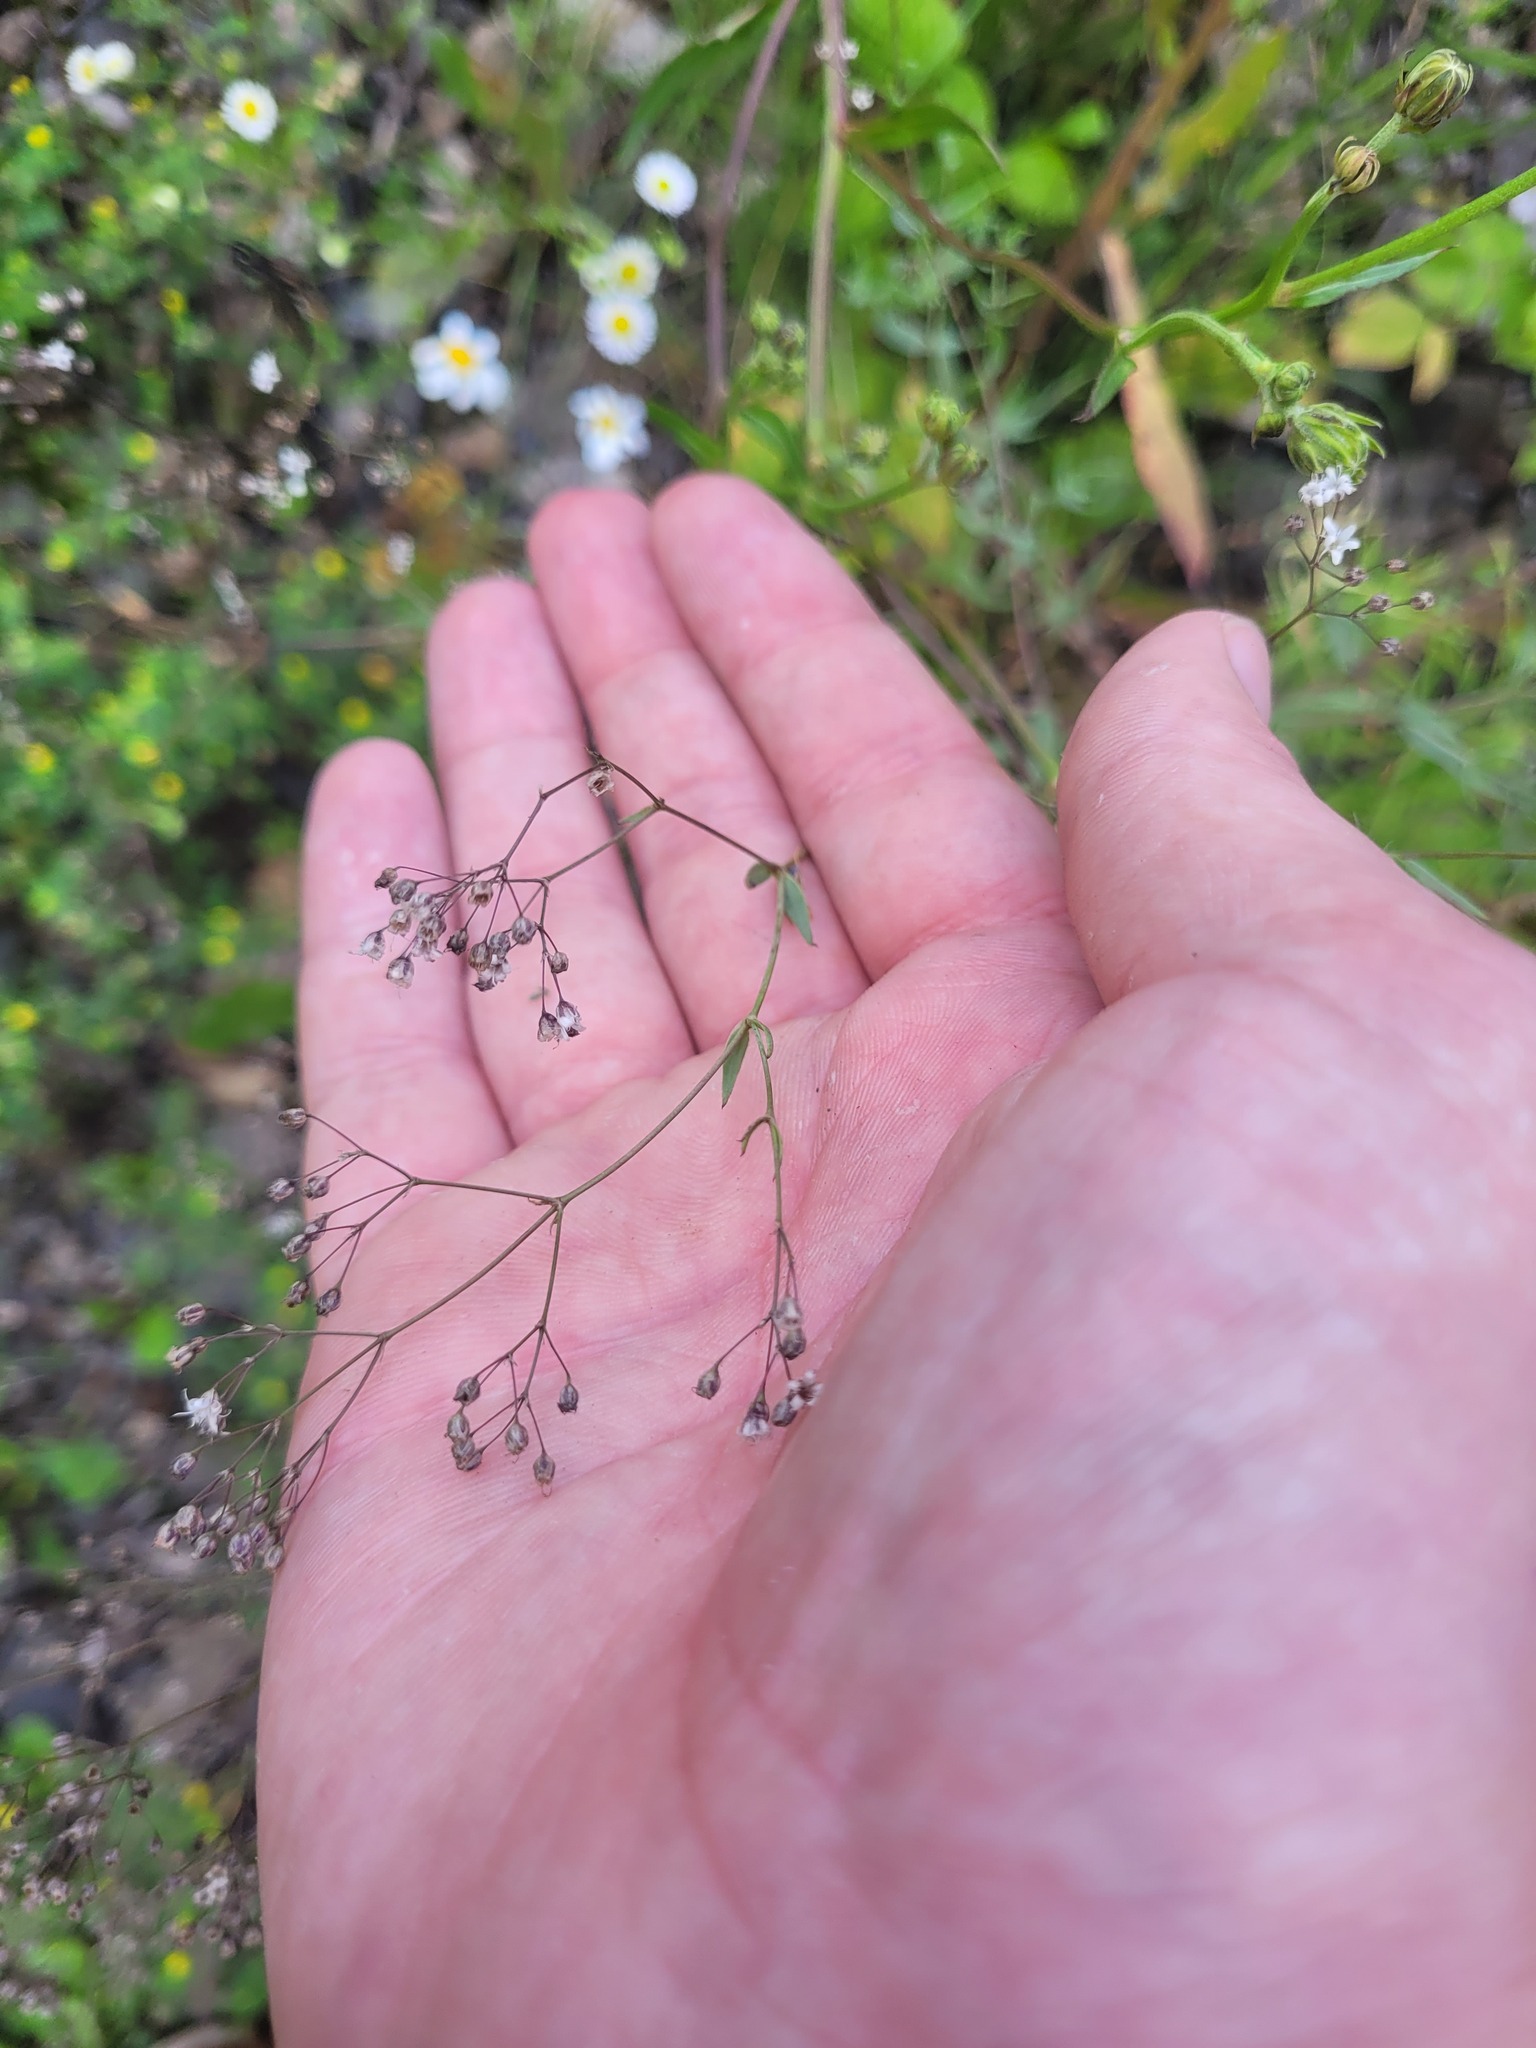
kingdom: Plantae
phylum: Tracheophyta
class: Magnoliopsida
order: Caryophyllales
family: Caryophyllaceae
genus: Gypsophila
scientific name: Gypsophila paniculata
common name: Baby's-breath
